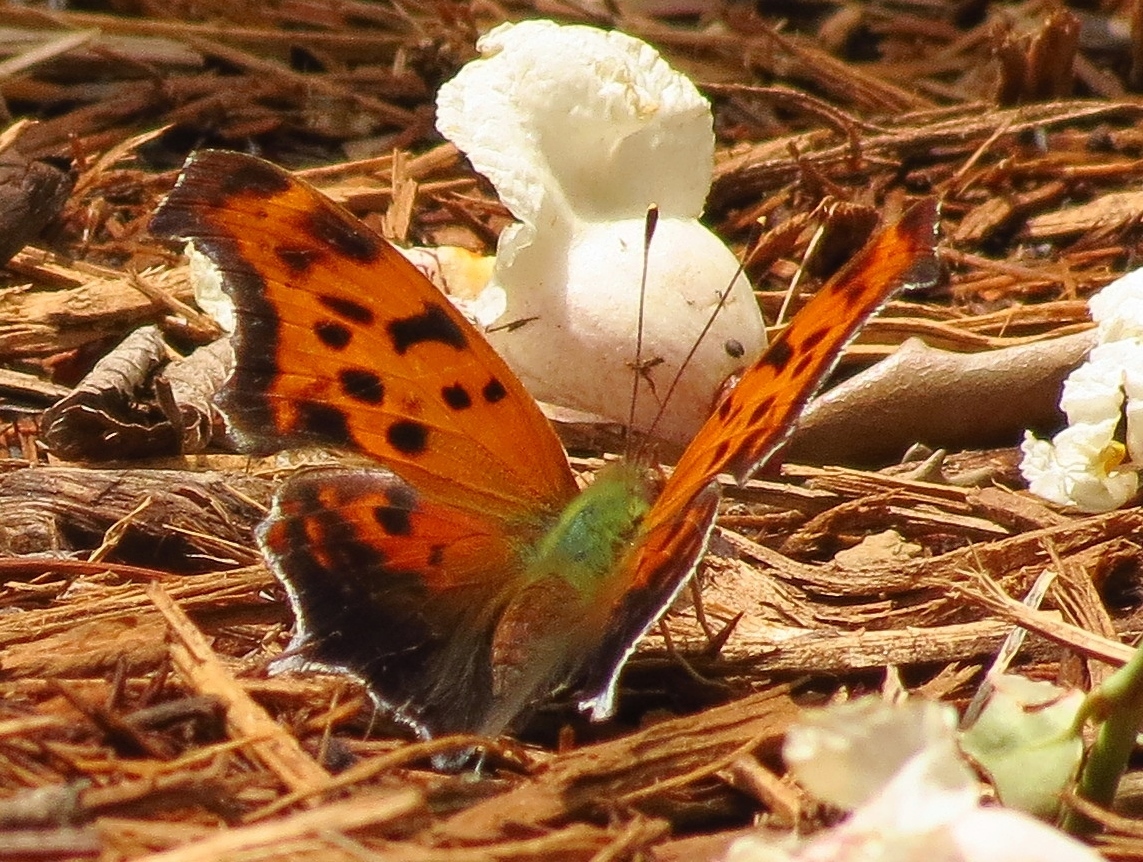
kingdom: Animalia
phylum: Arthropoda
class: Insecta
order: Lepidoptera
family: Nymphalidae
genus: Polygonia
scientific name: Polygonia interrogationis
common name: Question mark
